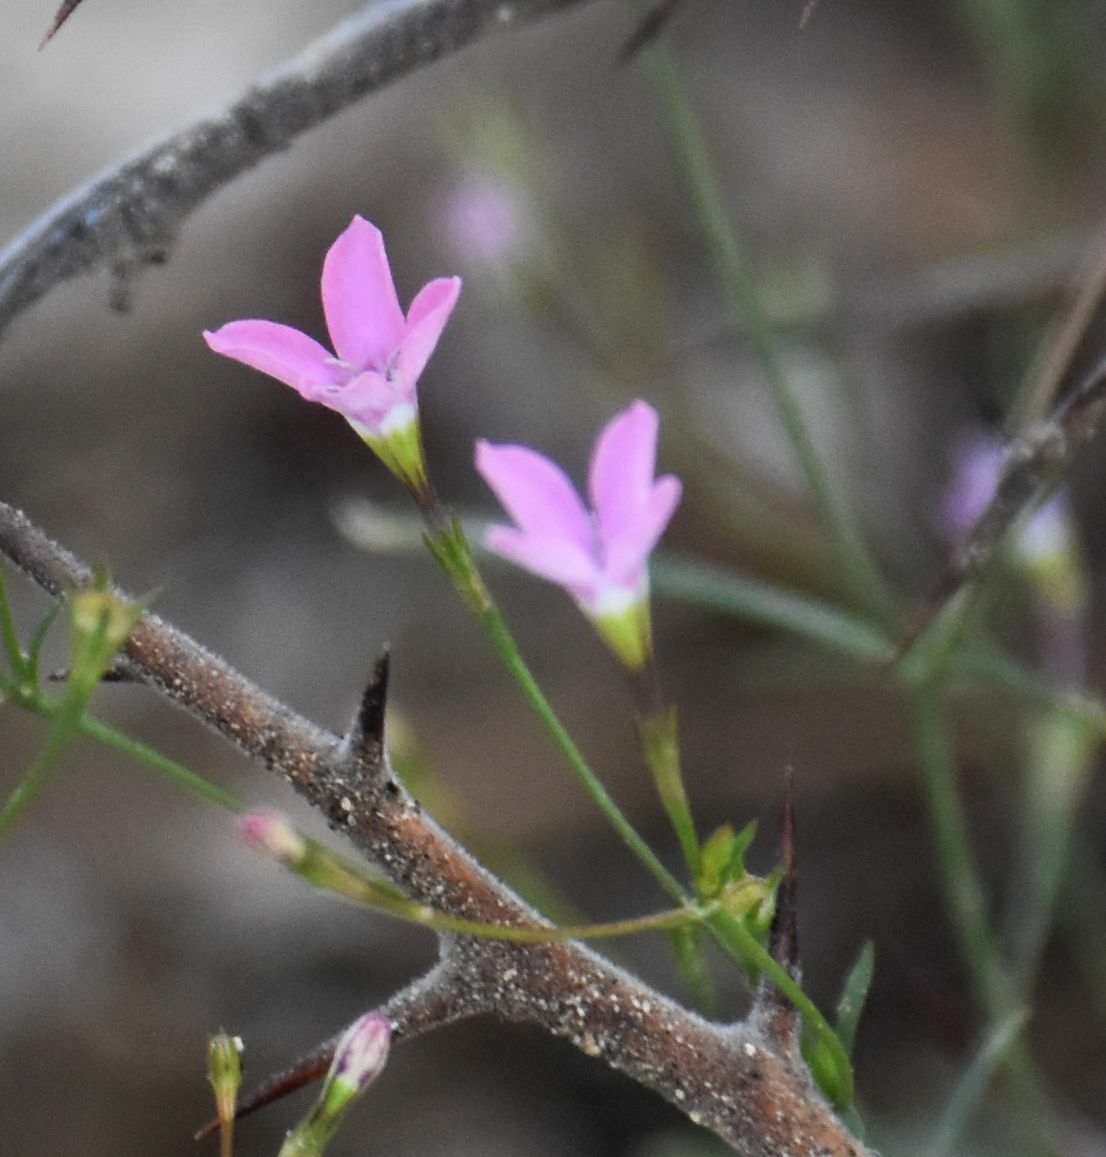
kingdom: Plantae
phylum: Tracheophyta
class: Magnoliopsida
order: Gentianales
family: Rubiaceae
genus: Stenotis
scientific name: Stenotis asperuloides
